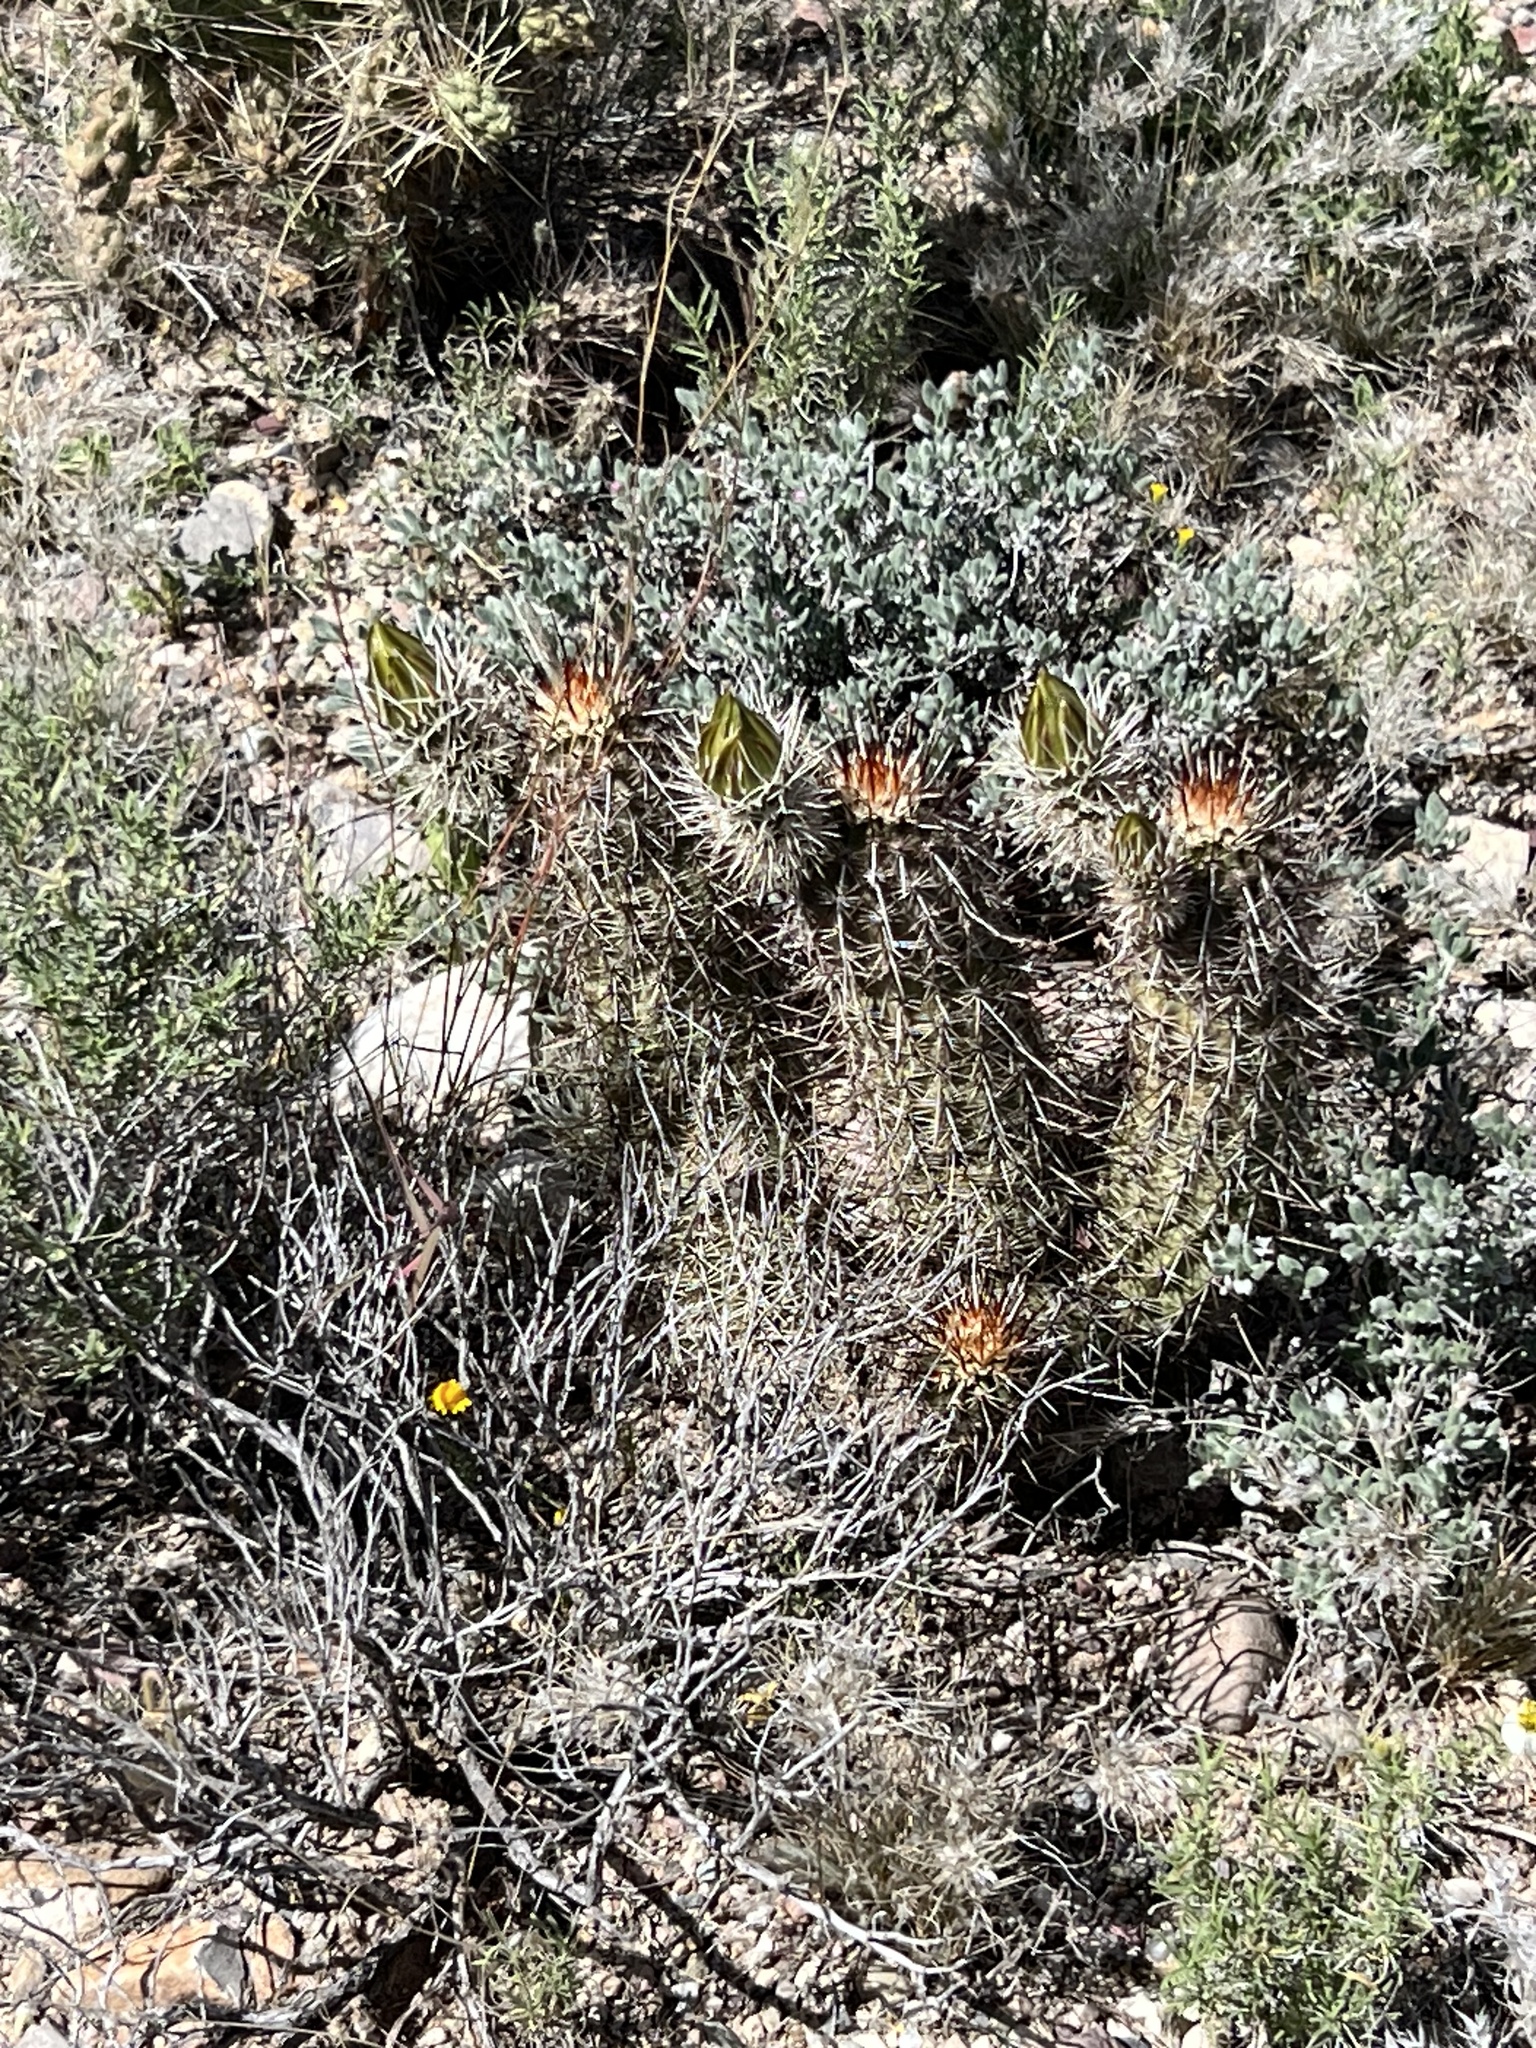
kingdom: Plantae
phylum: Tracheophyta
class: Magnoliopsida
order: Caryophyllales
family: Cactaceae
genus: Echinocereus
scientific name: Echinocereus fasciculatus
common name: Bundle hedgehog
